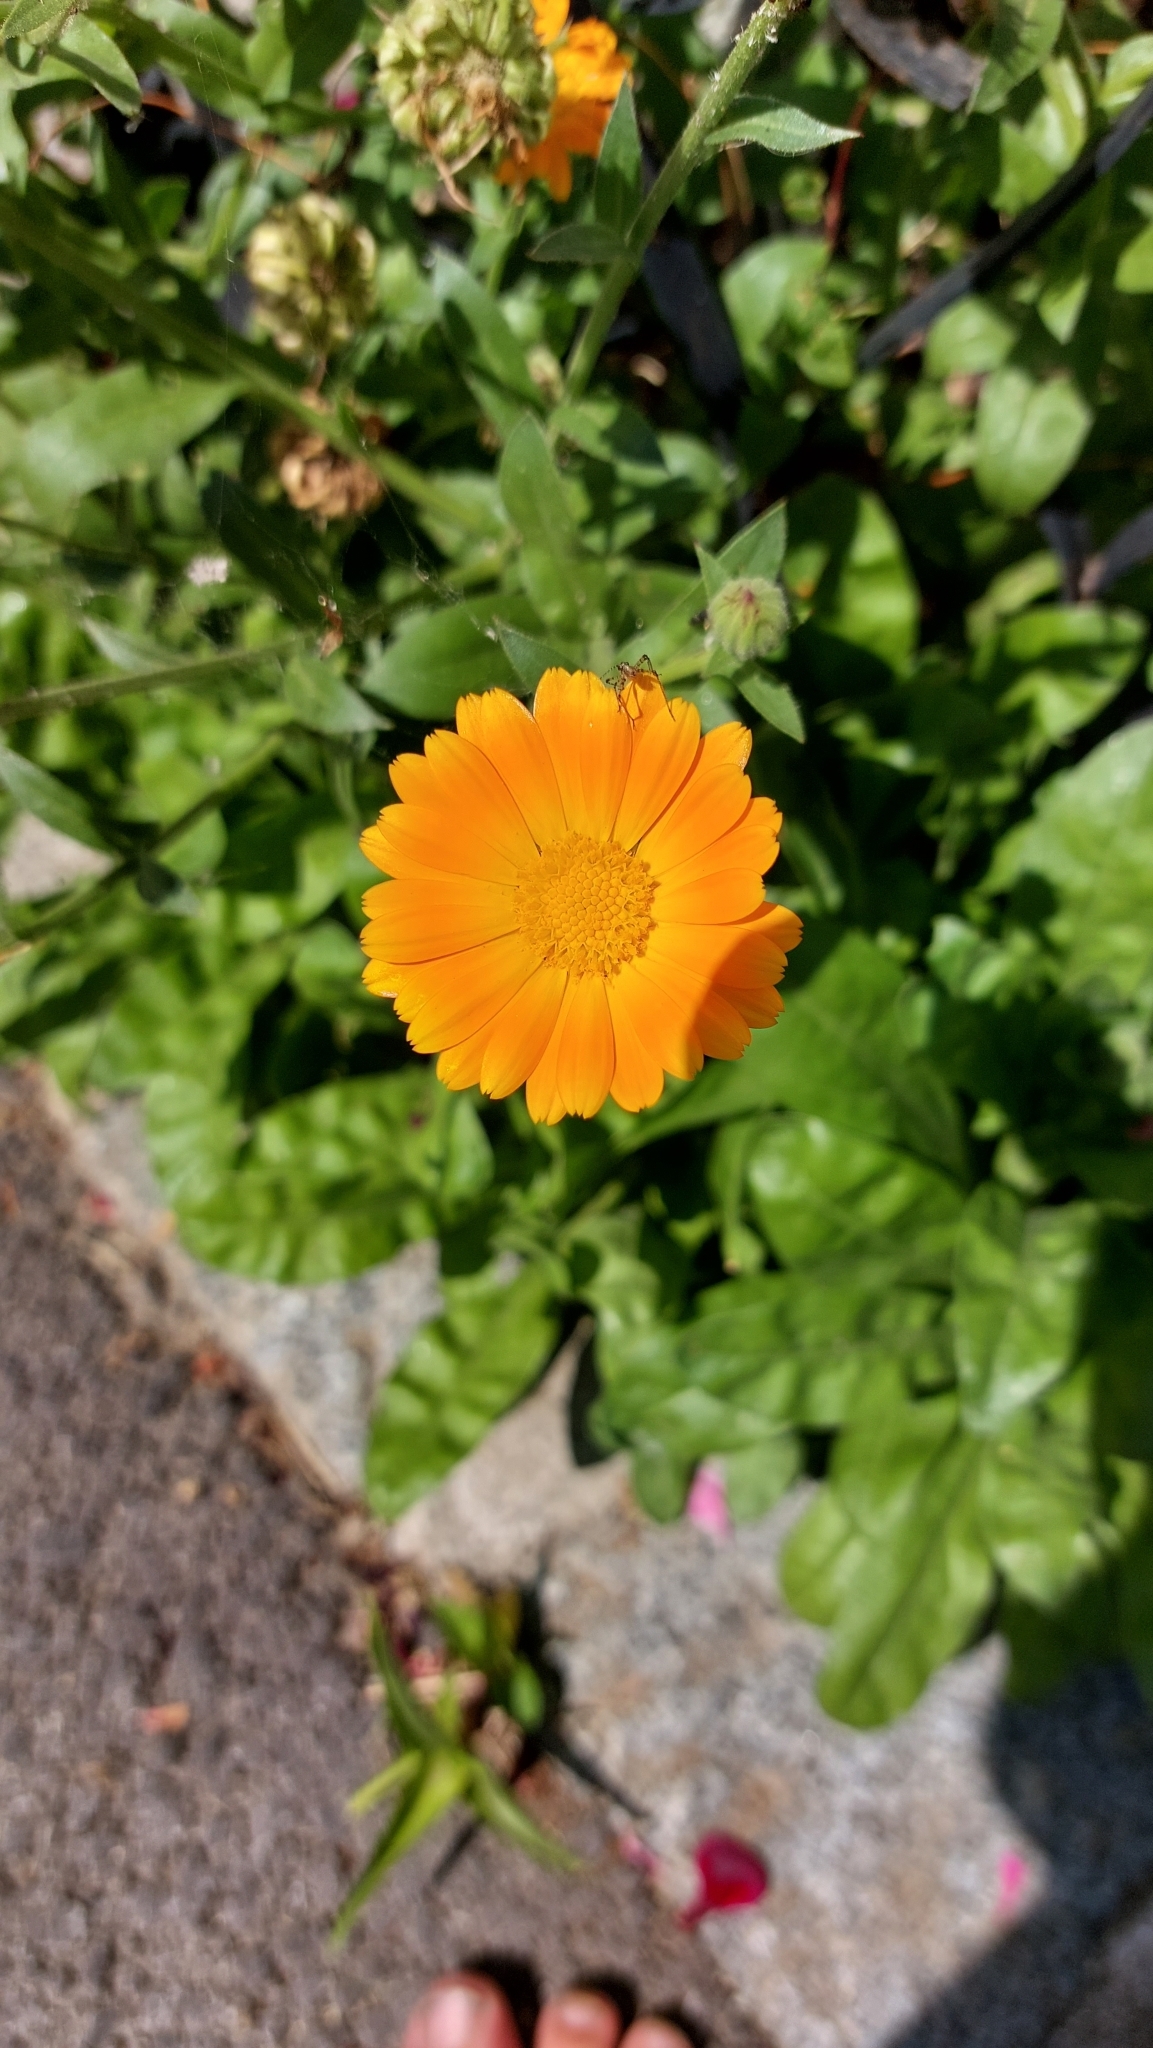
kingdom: Plantae
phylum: Tracheophyta
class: Magnoliopsida
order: Asterales
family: Asteraceae
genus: Calendula
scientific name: Calendula officinalis
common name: Pot marigold
